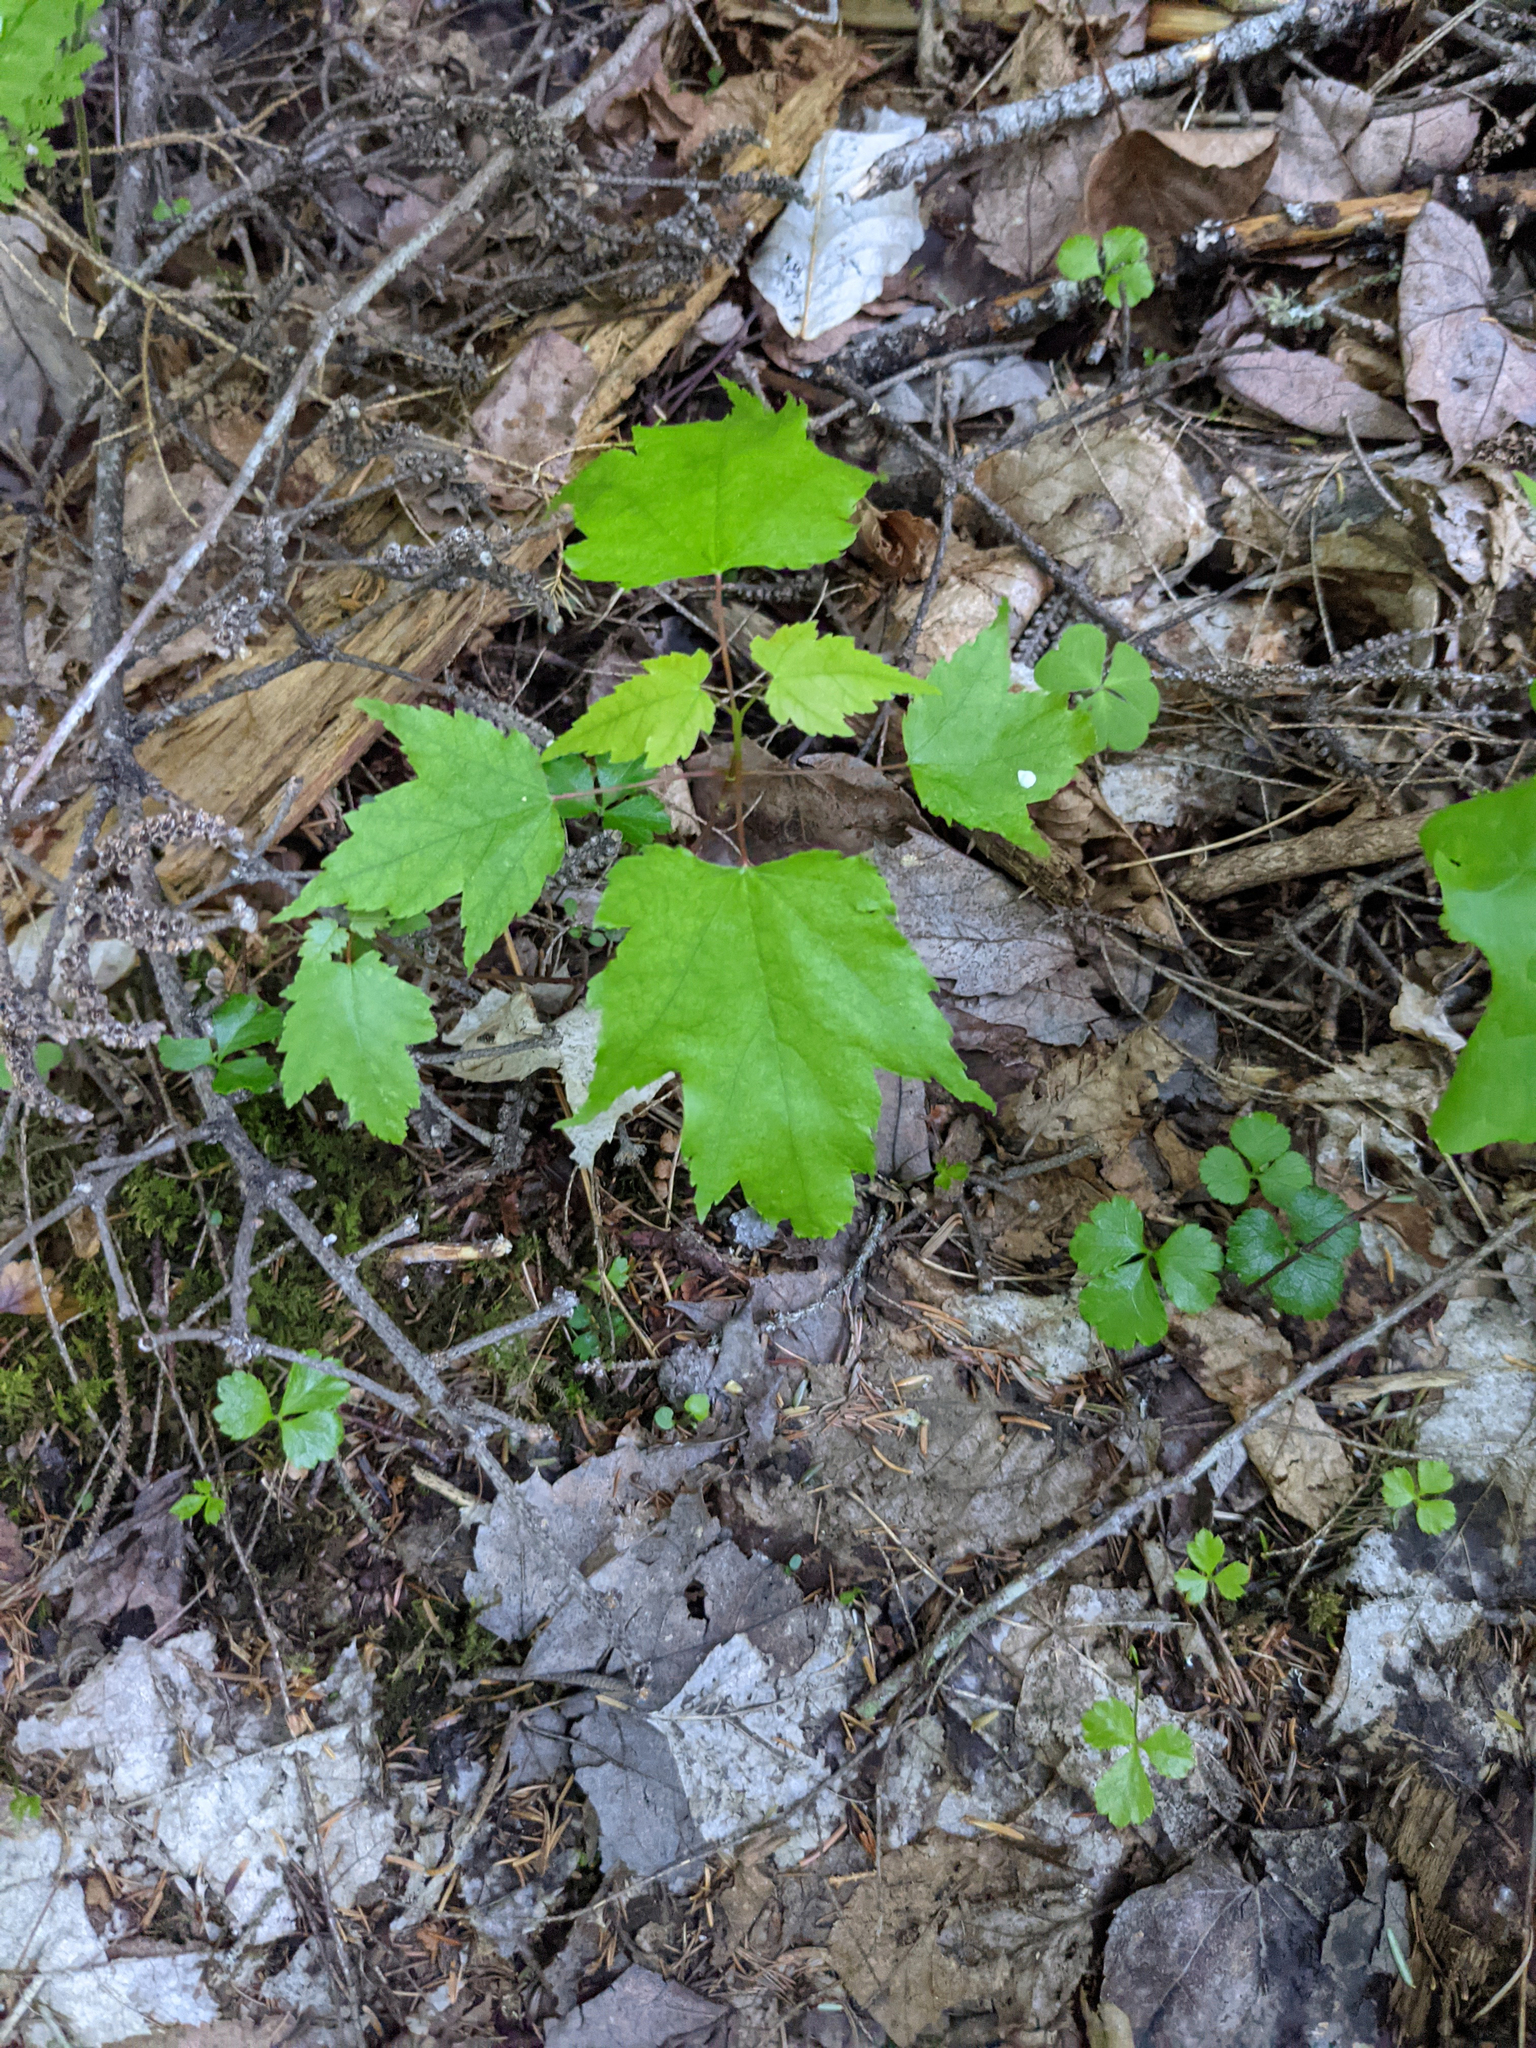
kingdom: Plantae
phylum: Tracheophyta
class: Magnoliopsida
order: Sapindales
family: Sapindaceae
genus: Acer
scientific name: Acer rubrum
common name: Red maple
